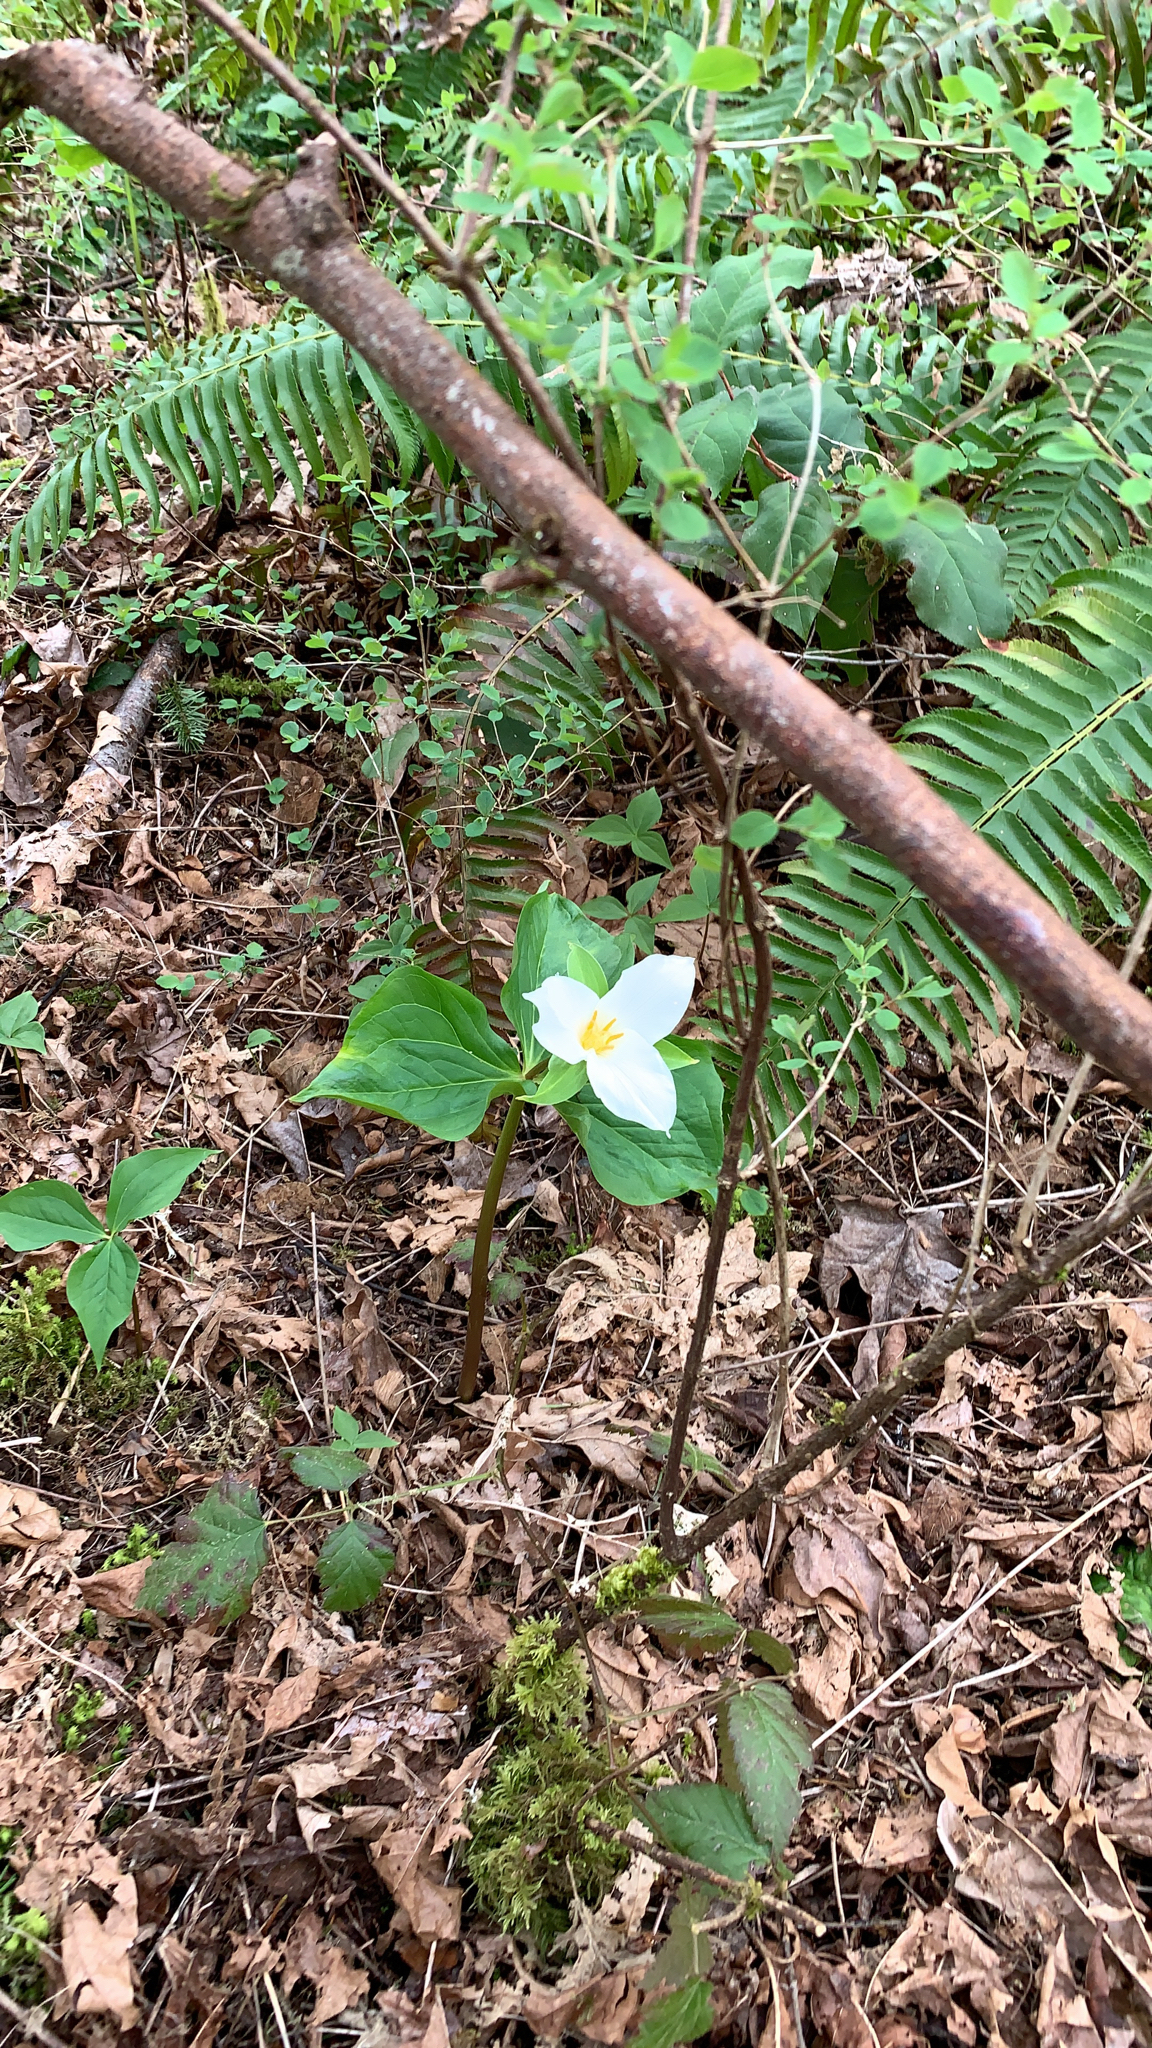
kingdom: Plantae
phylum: Tracheophyta
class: Liliopsida
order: Liliales
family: Melanthiaceae
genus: Trillium
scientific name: Trillium ovatum
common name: Pacific trillium
